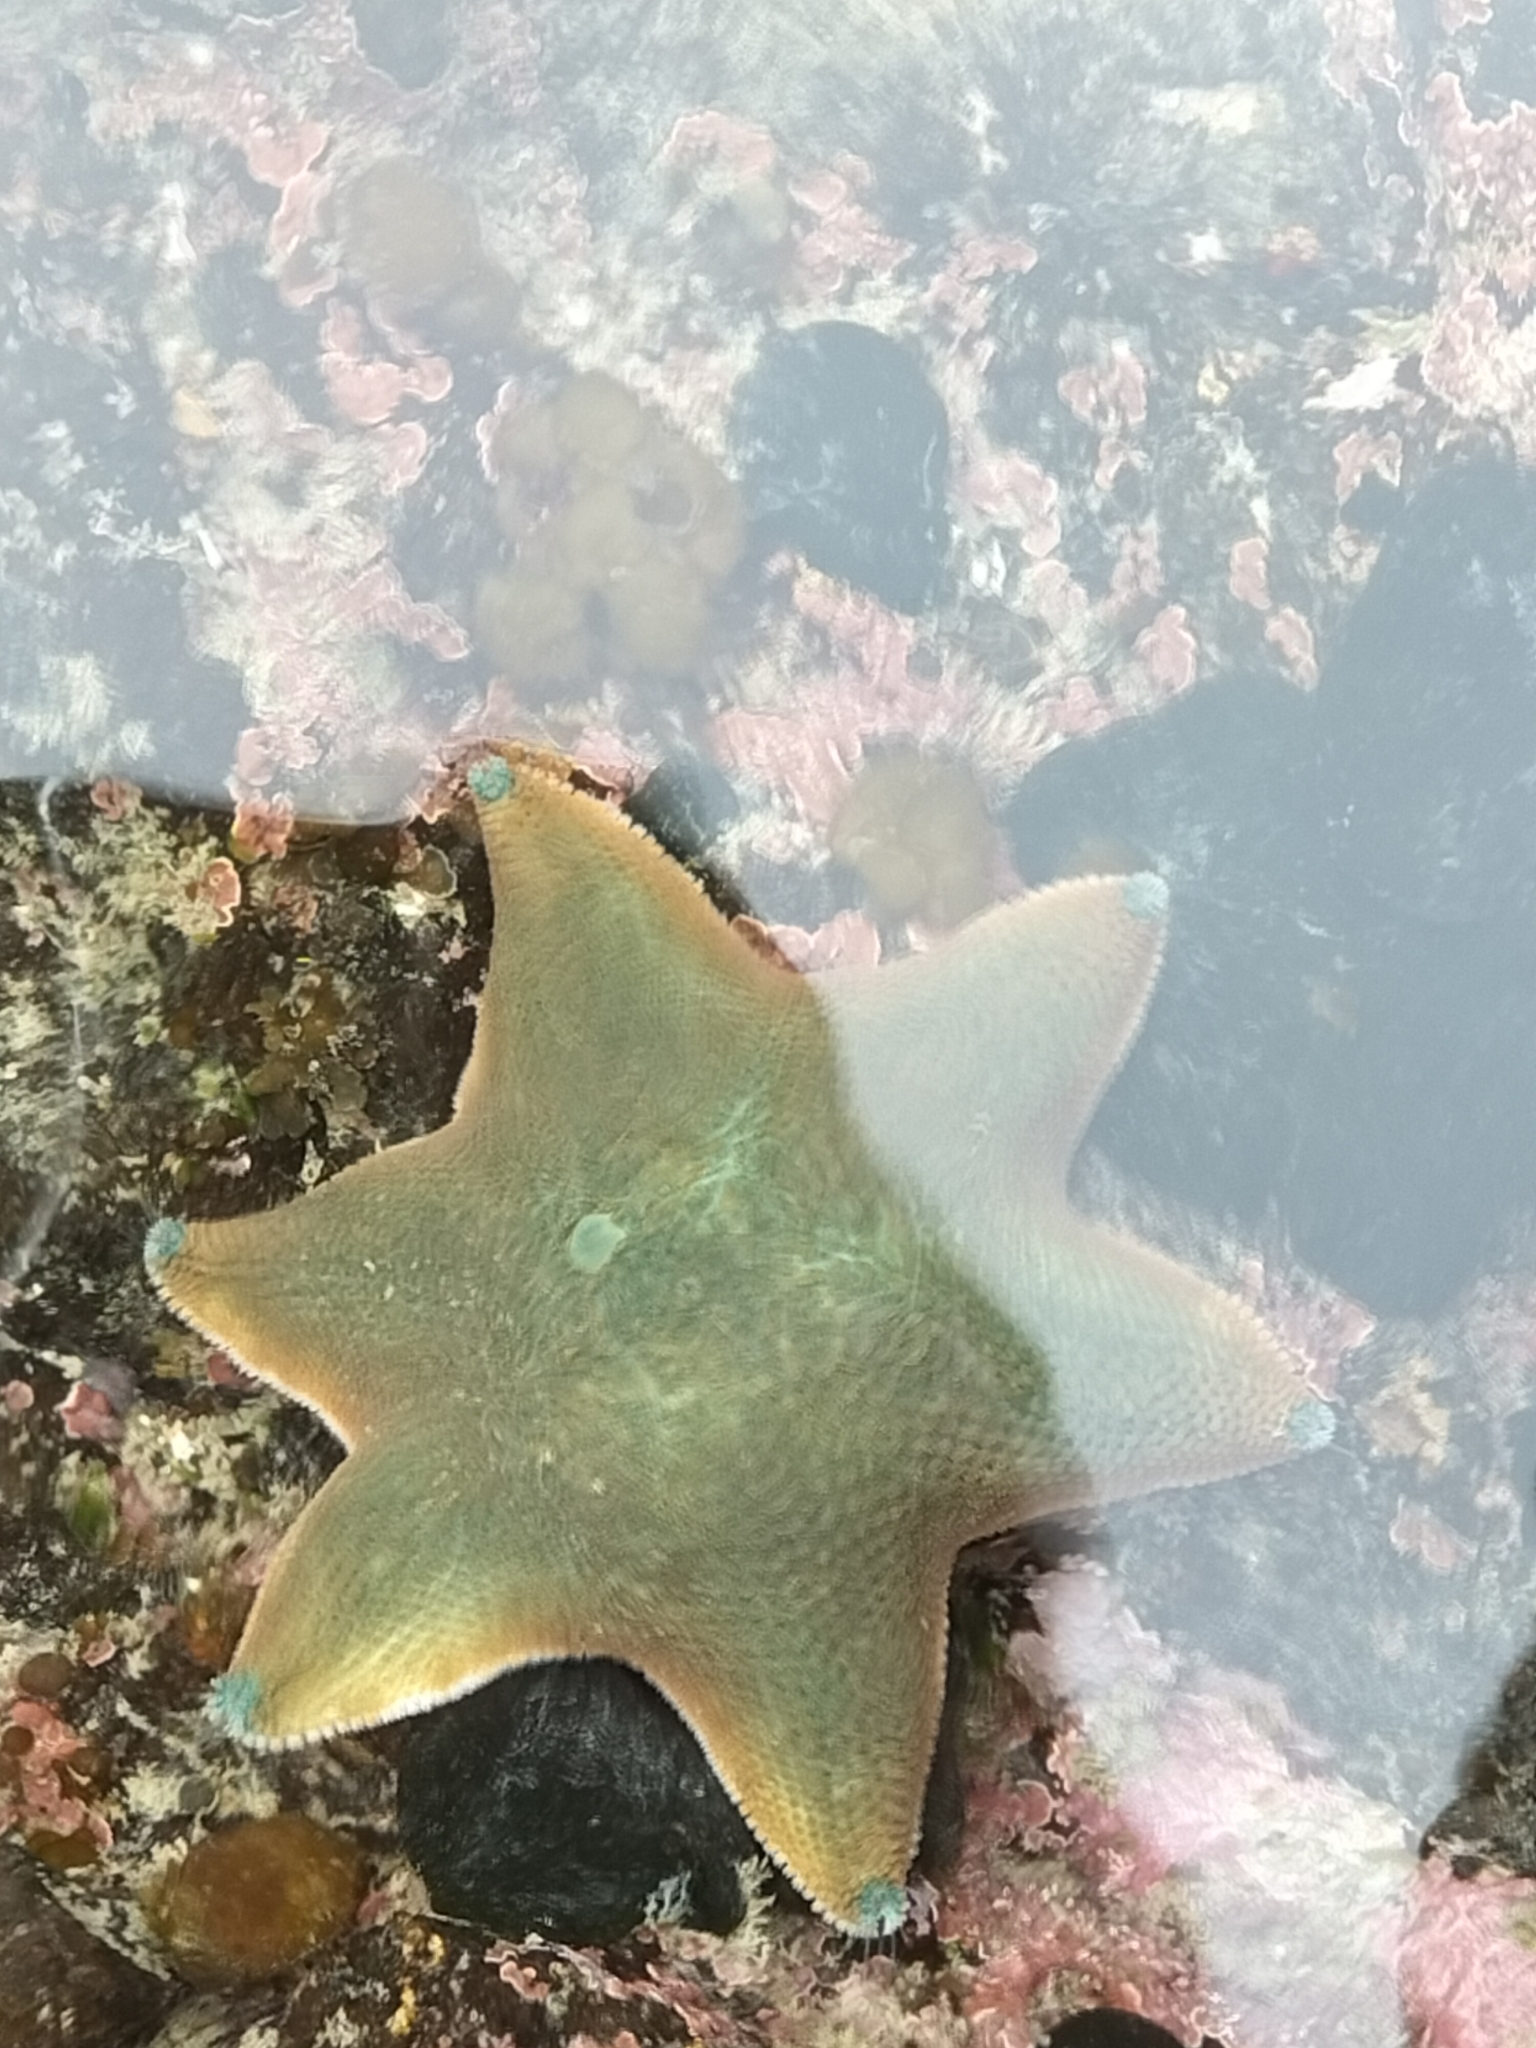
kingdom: Animalia
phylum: Echinodermata
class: Asteroidea
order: Valvatida
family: Asterinidae
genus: Patiriella
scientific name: Patiriella regularis
